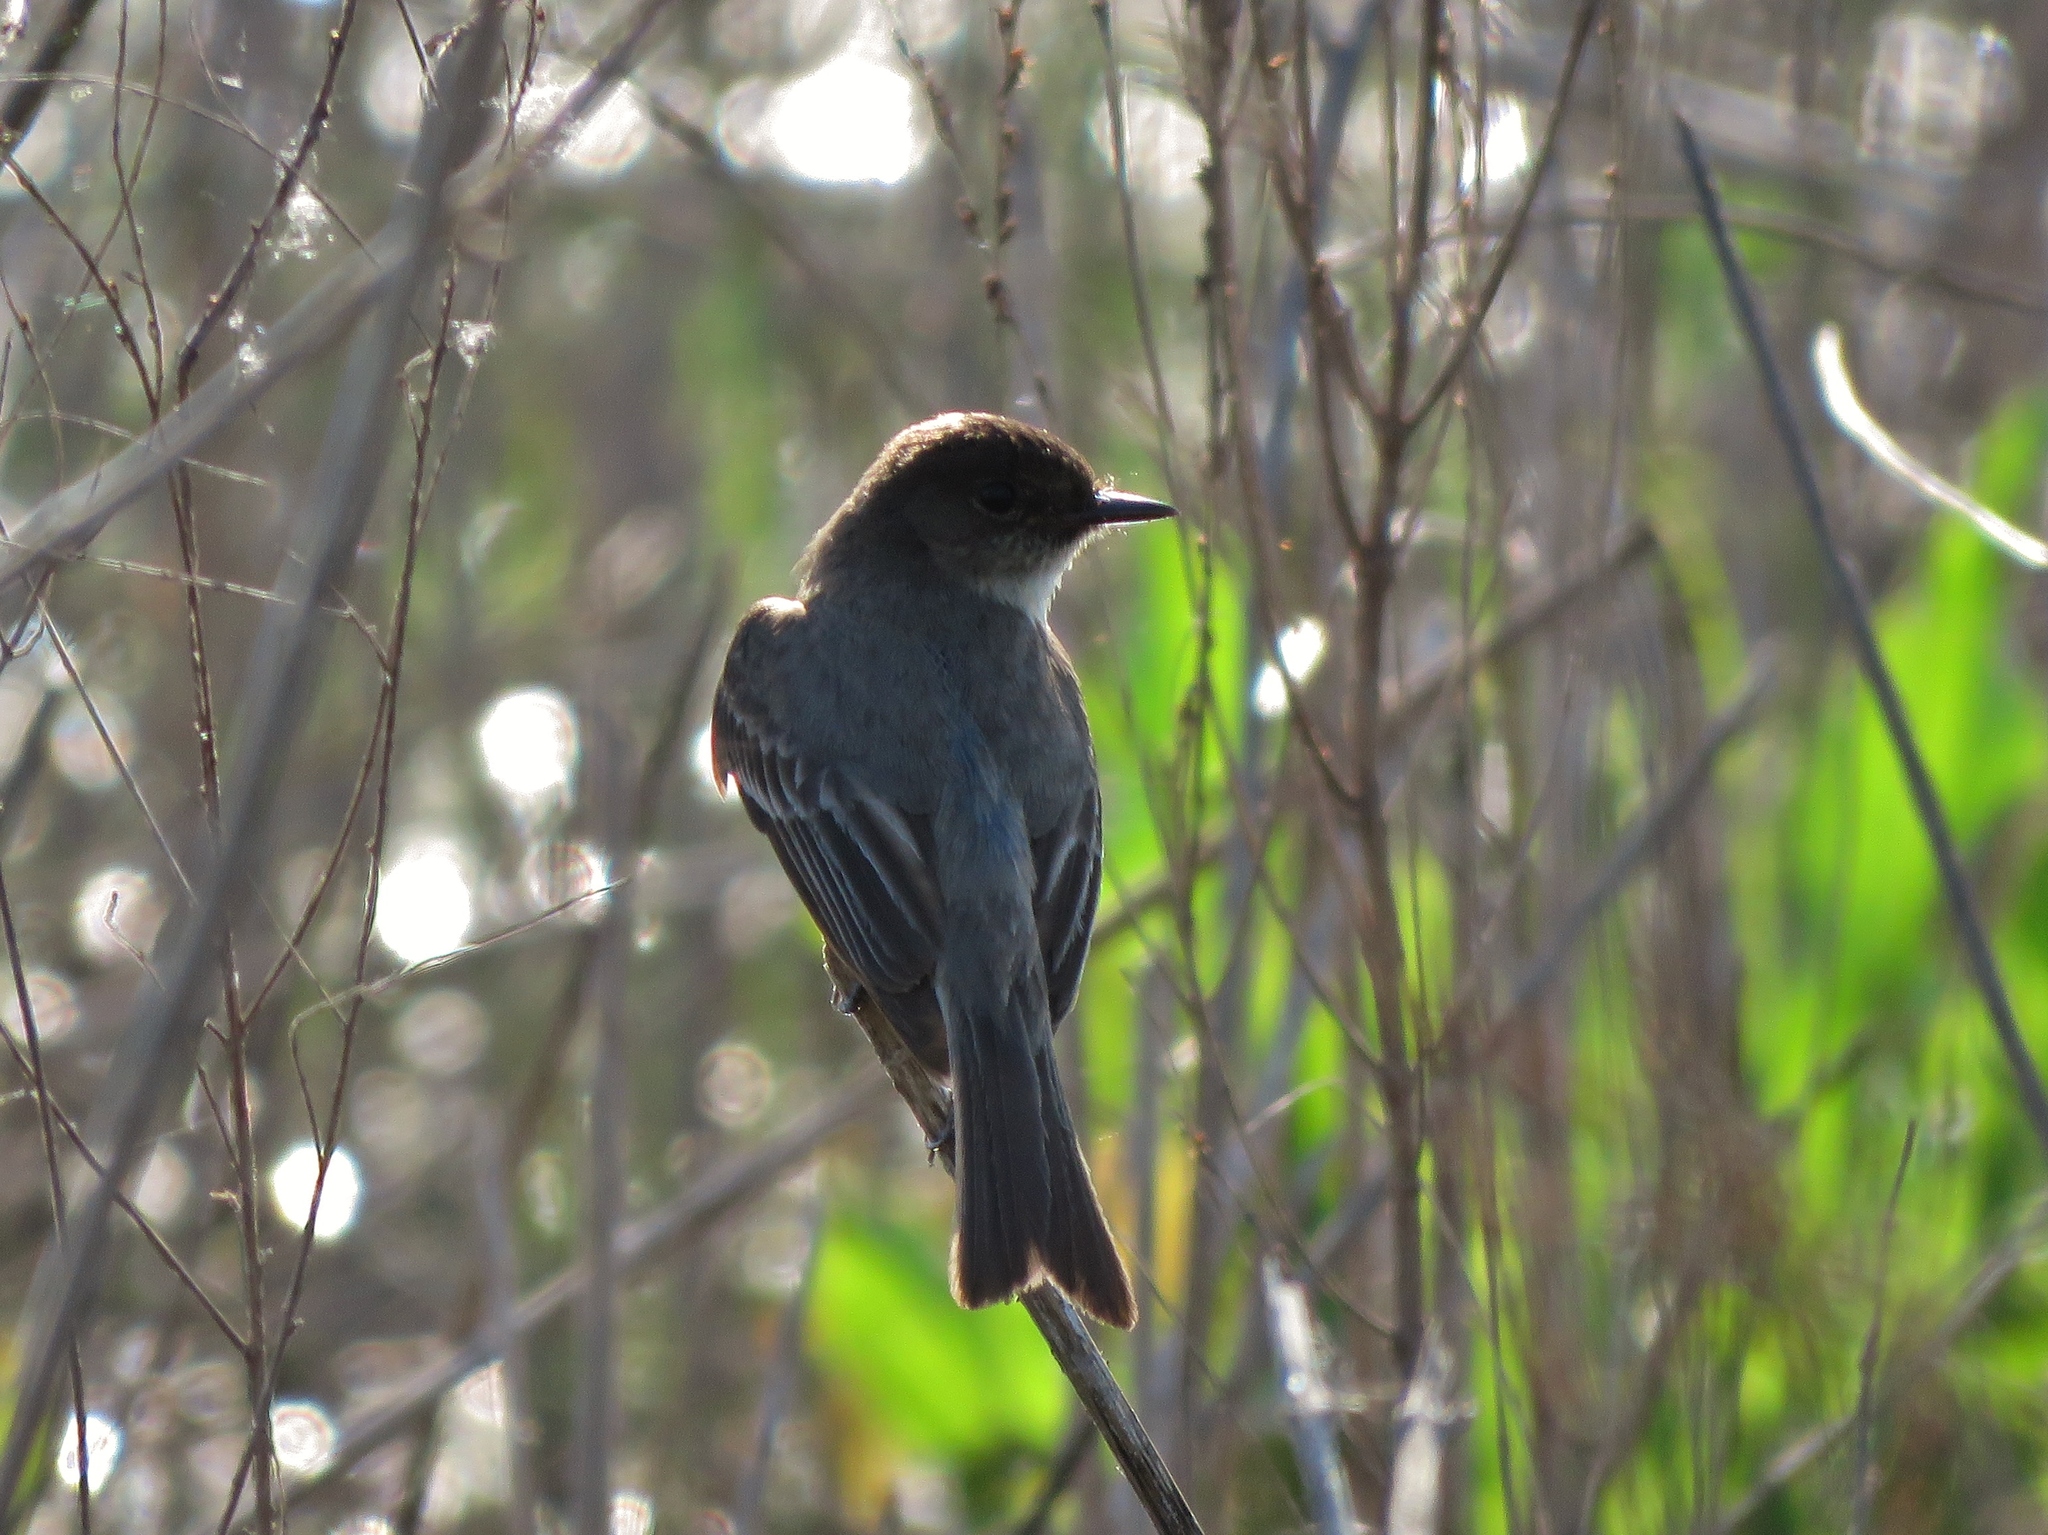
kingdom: Animalia
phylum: Chordata
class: Aves
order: Passeriformes
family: Tyrannidae
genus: Sayornis
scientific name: Sayornis phoebe
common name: Eastern phoebe
